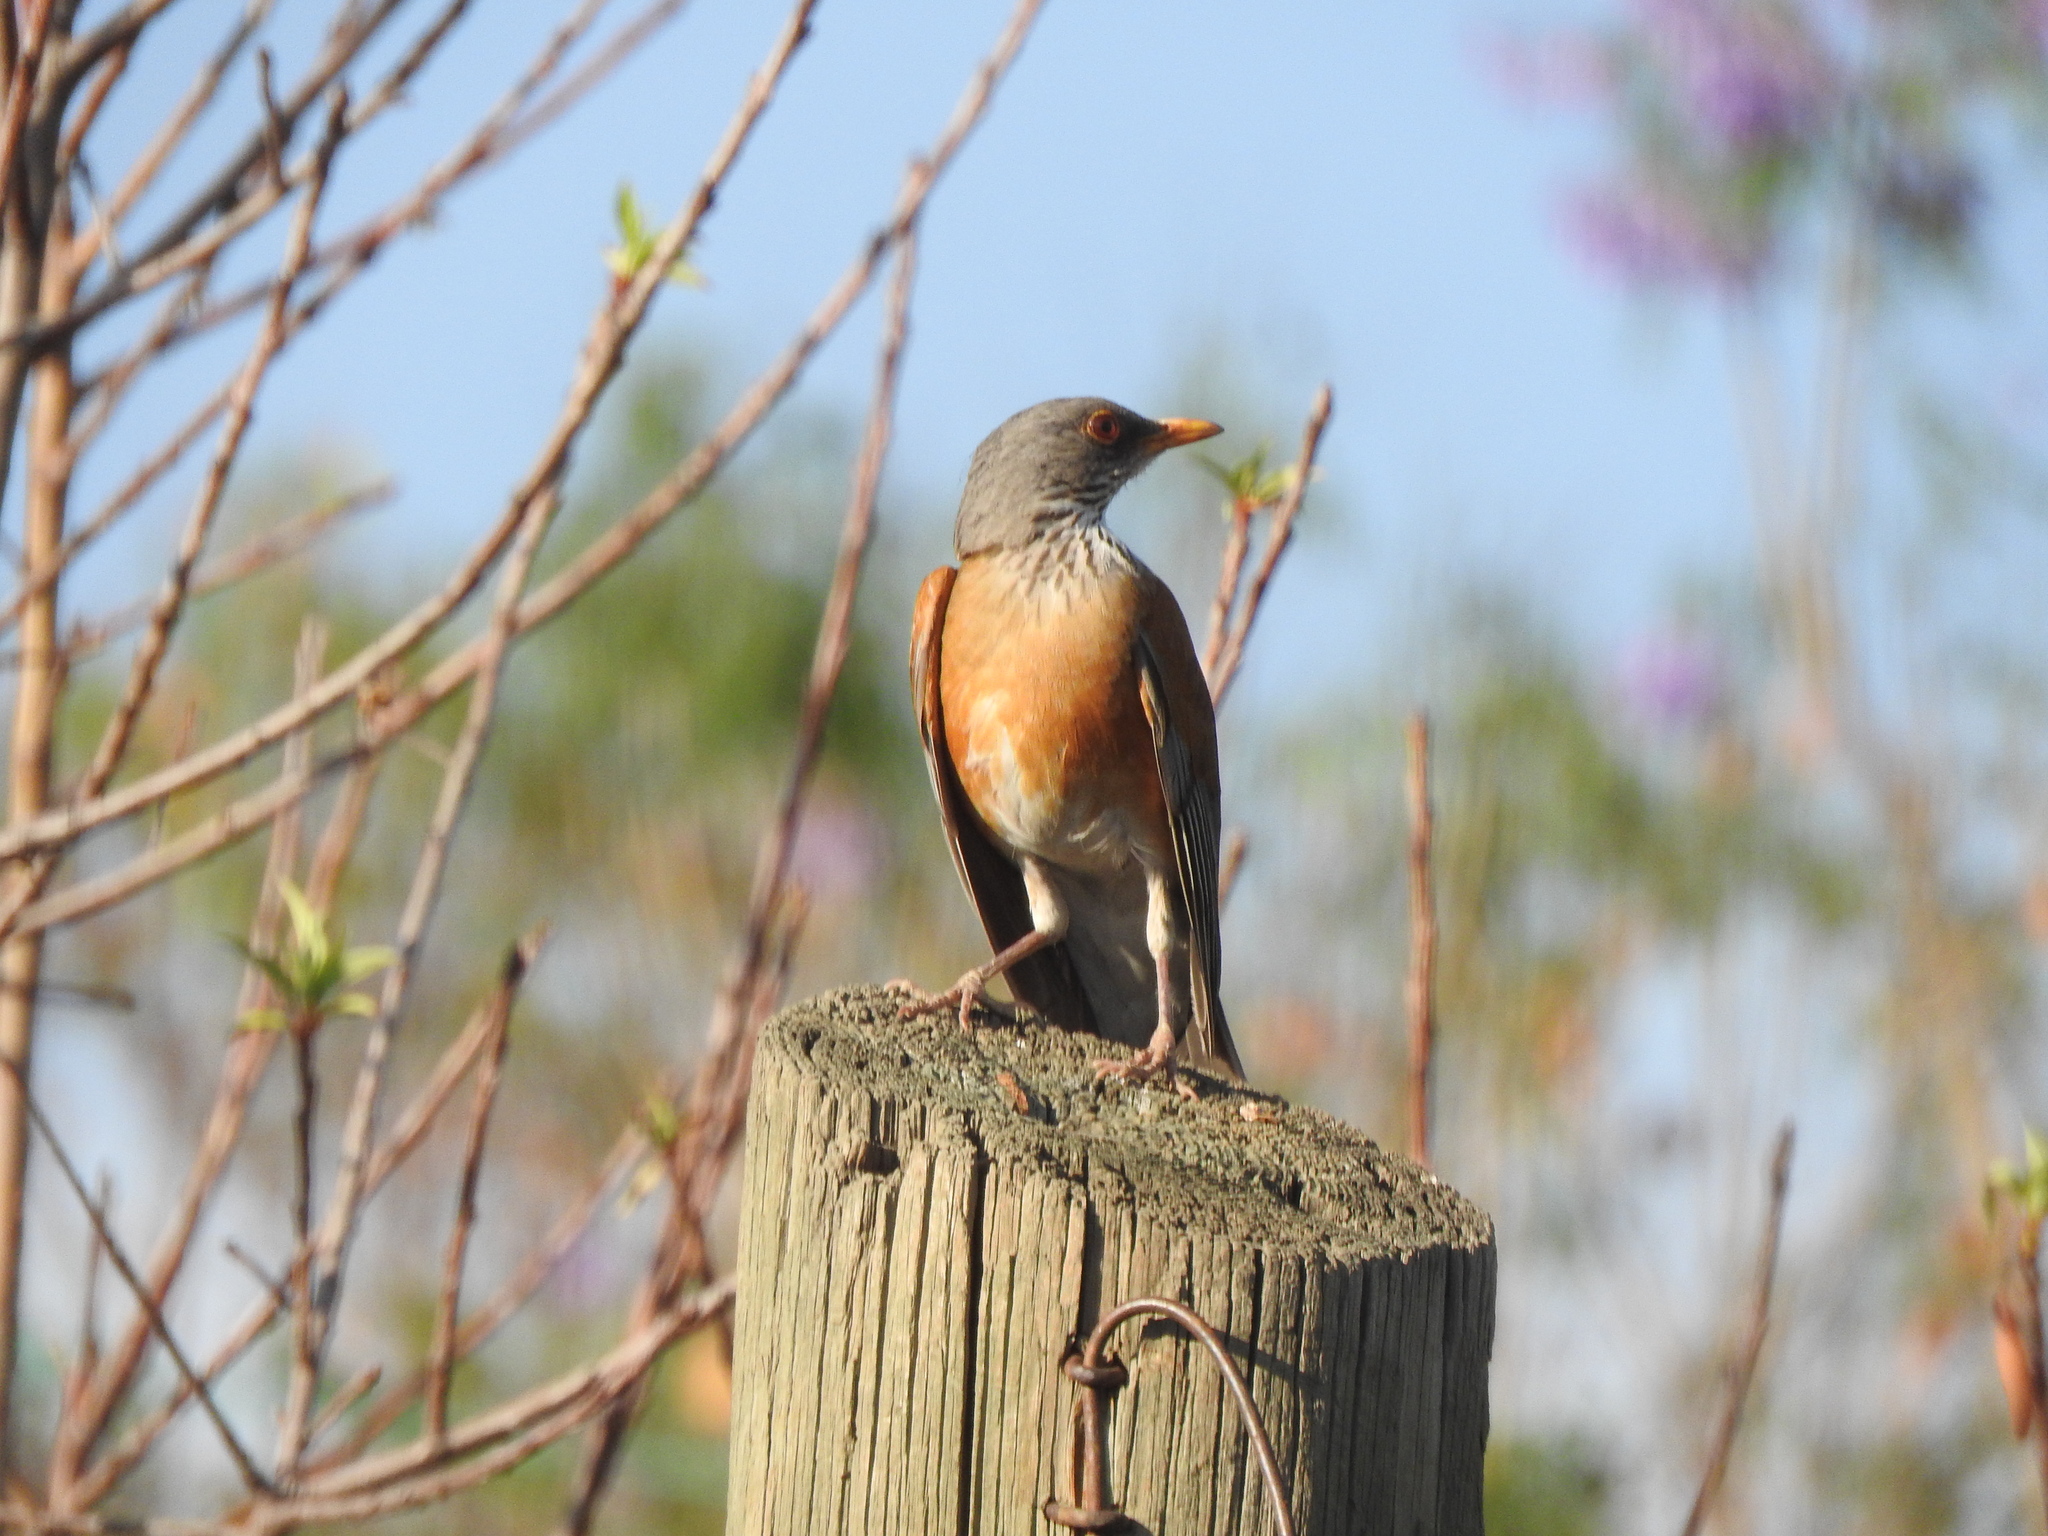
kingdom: Animalia
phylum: Chordata
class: Aves
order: Passeriformes
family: Turdidae
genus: Turdus
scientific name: Turdus rufopalliatus
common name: Rufous-backed robin
